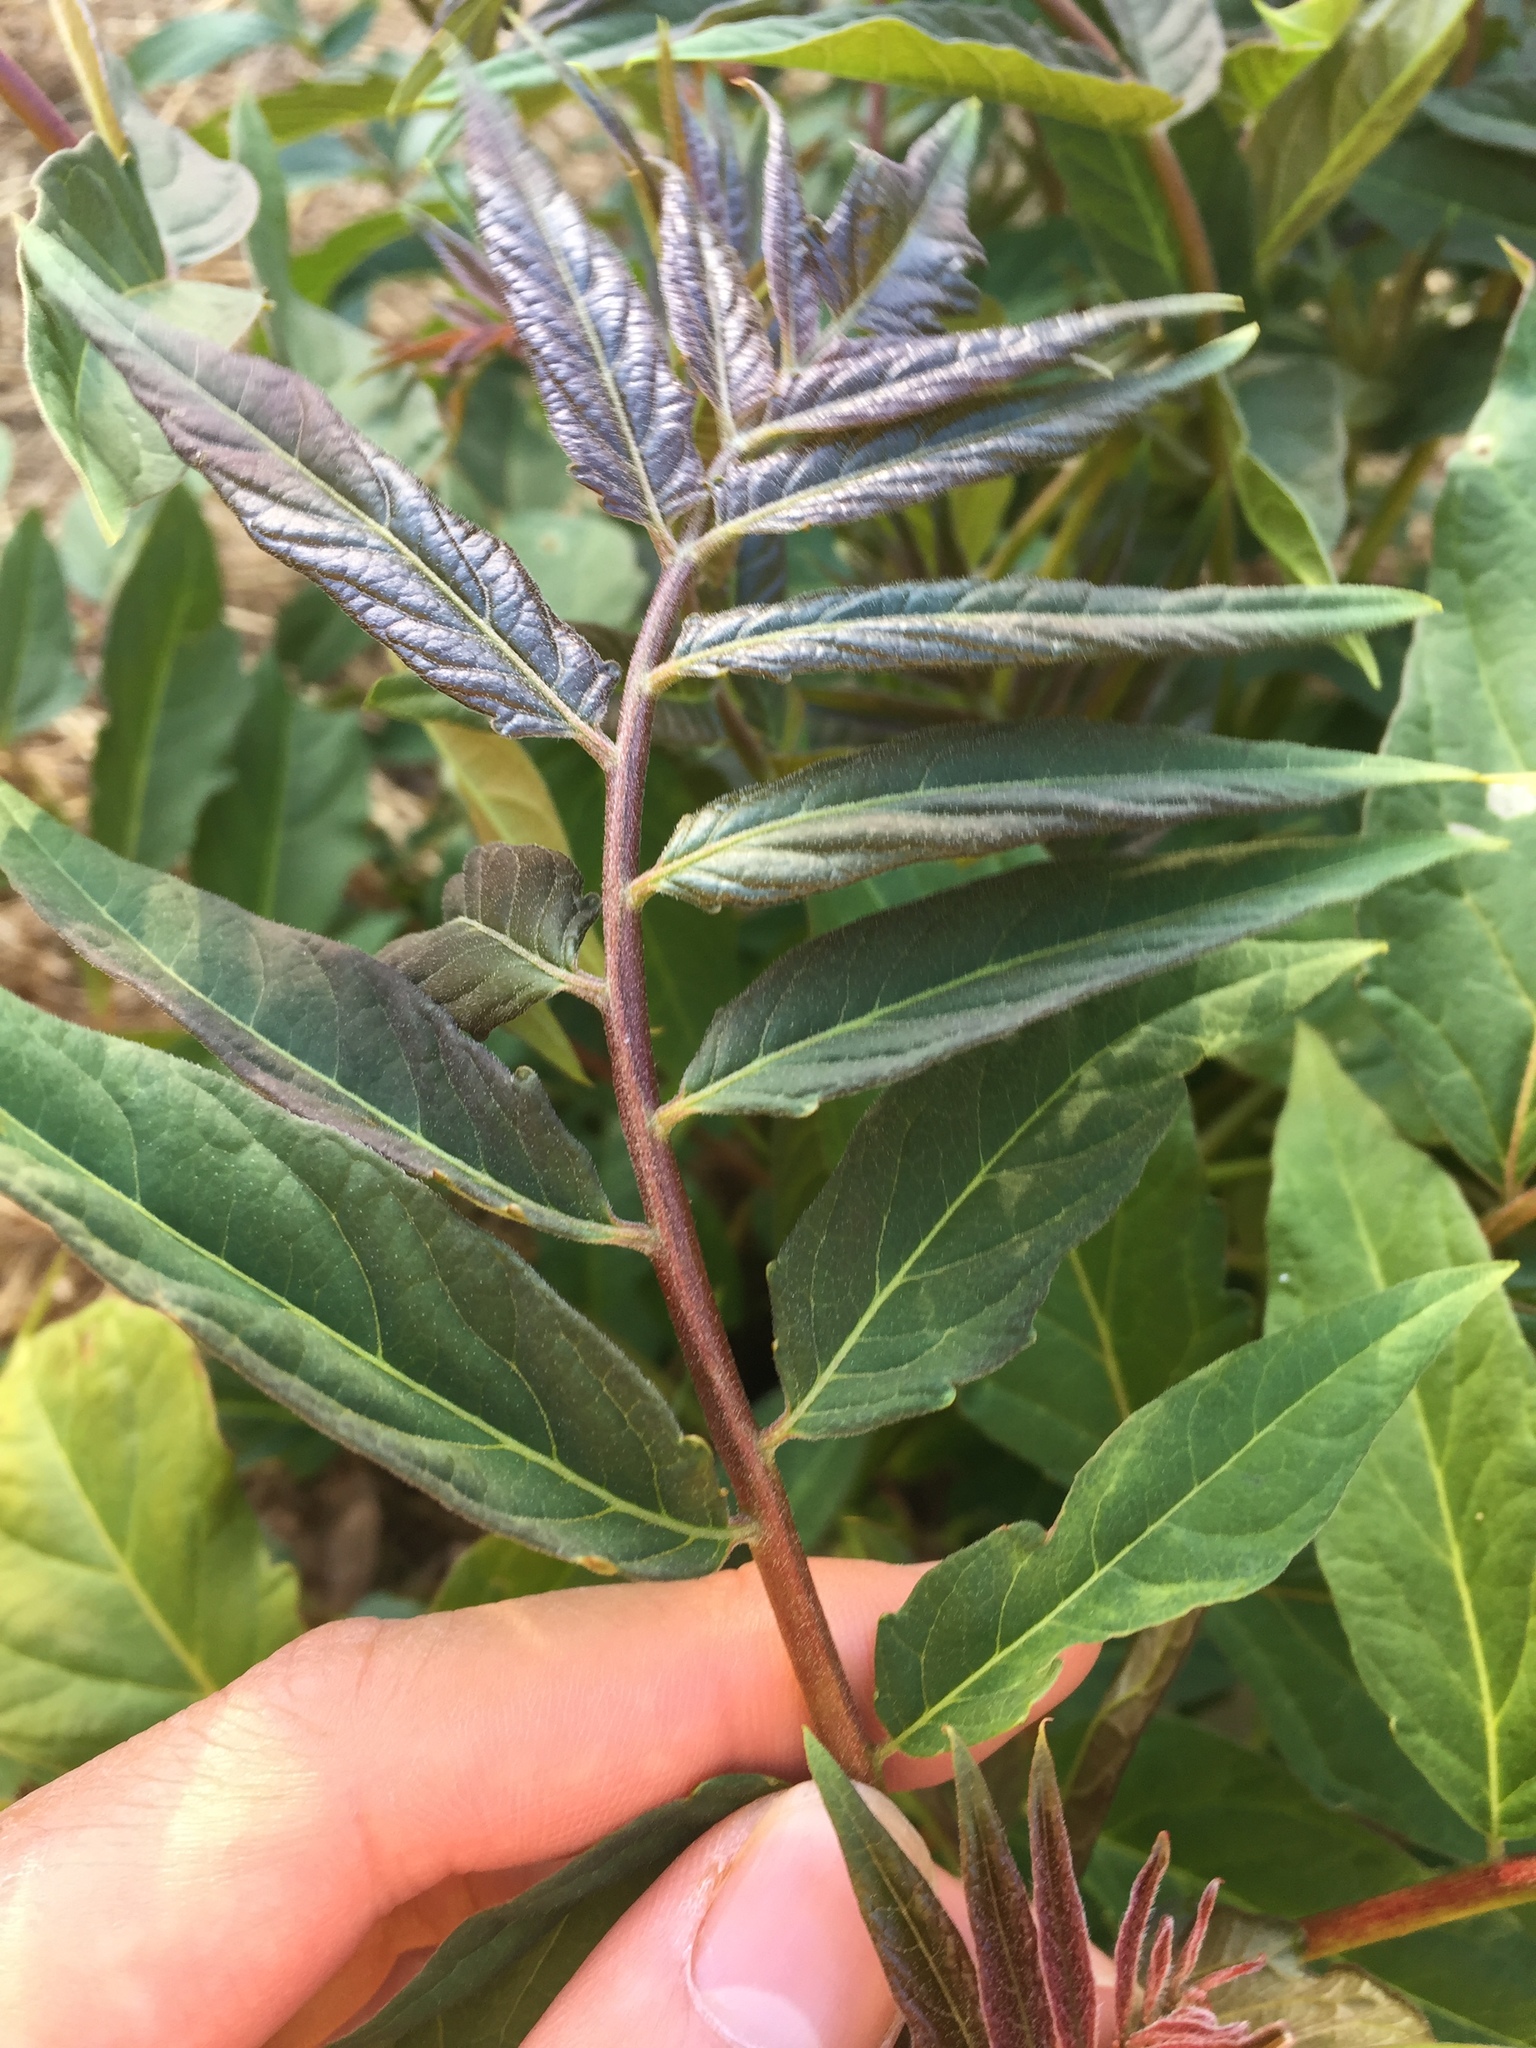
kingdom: Plantae
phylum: Tracheophyta
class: Magnoliopsida
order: Sapindales
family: Simaroubaceae
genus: Ailanthus
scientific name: Ailanthus altissima
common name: Tree-of-heaven
